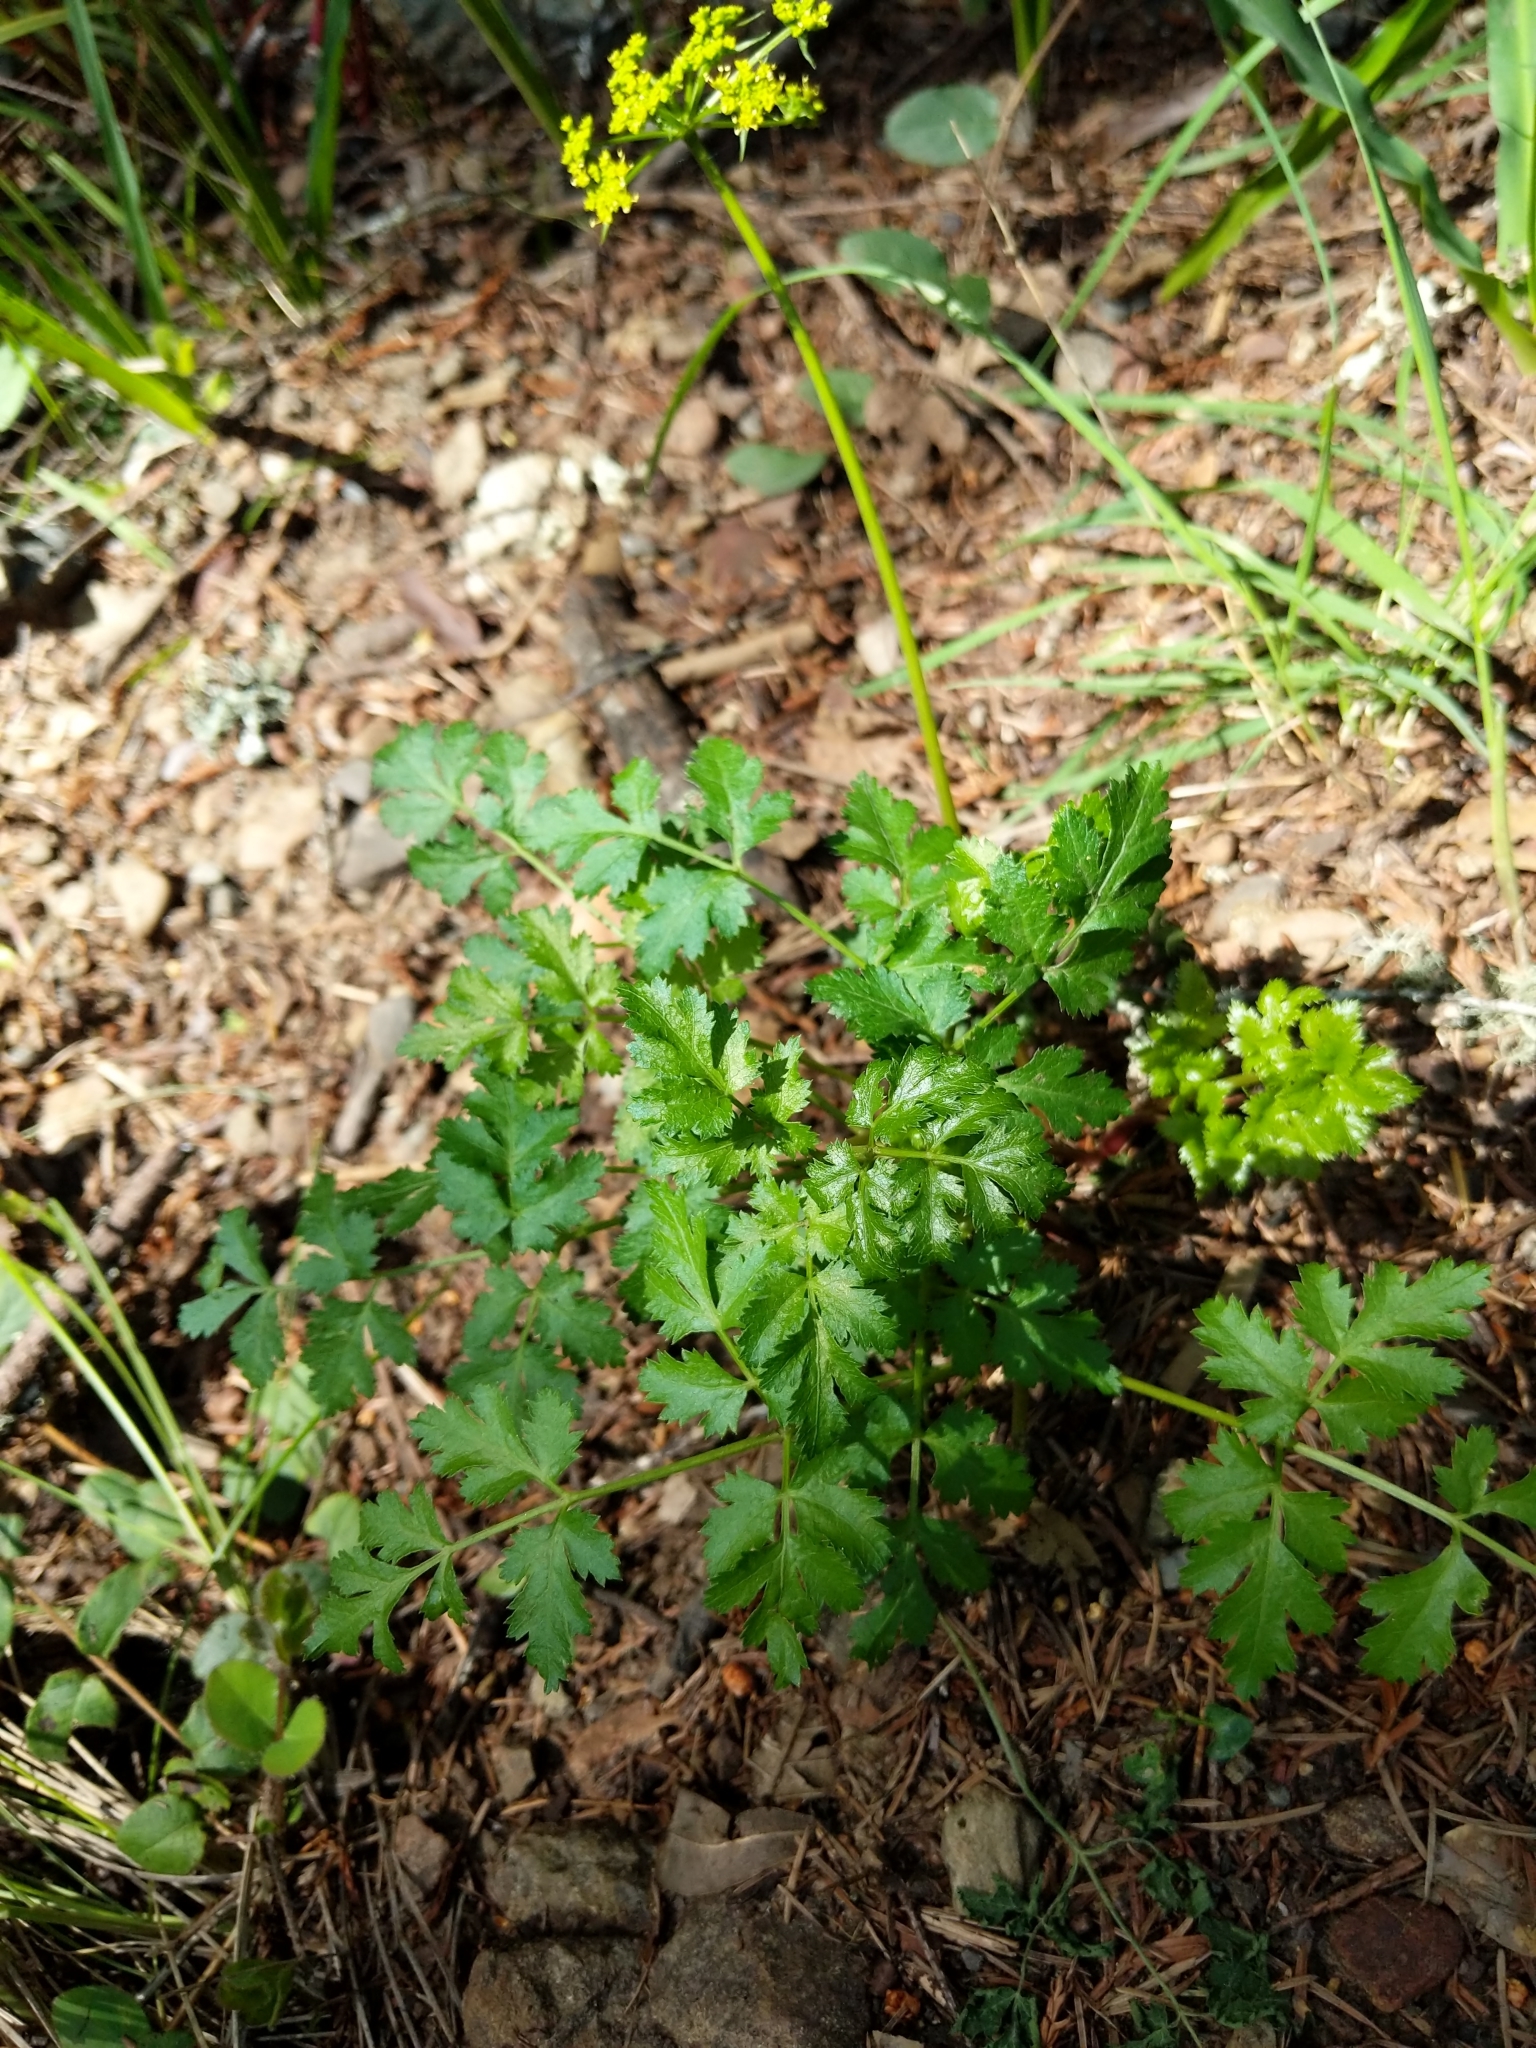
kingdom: Plantae
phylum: Tracheophyta
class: Magnoliopsida
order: Apiales
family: Apiaceae
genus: Tauschia
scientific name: Tauschia kelloggii
